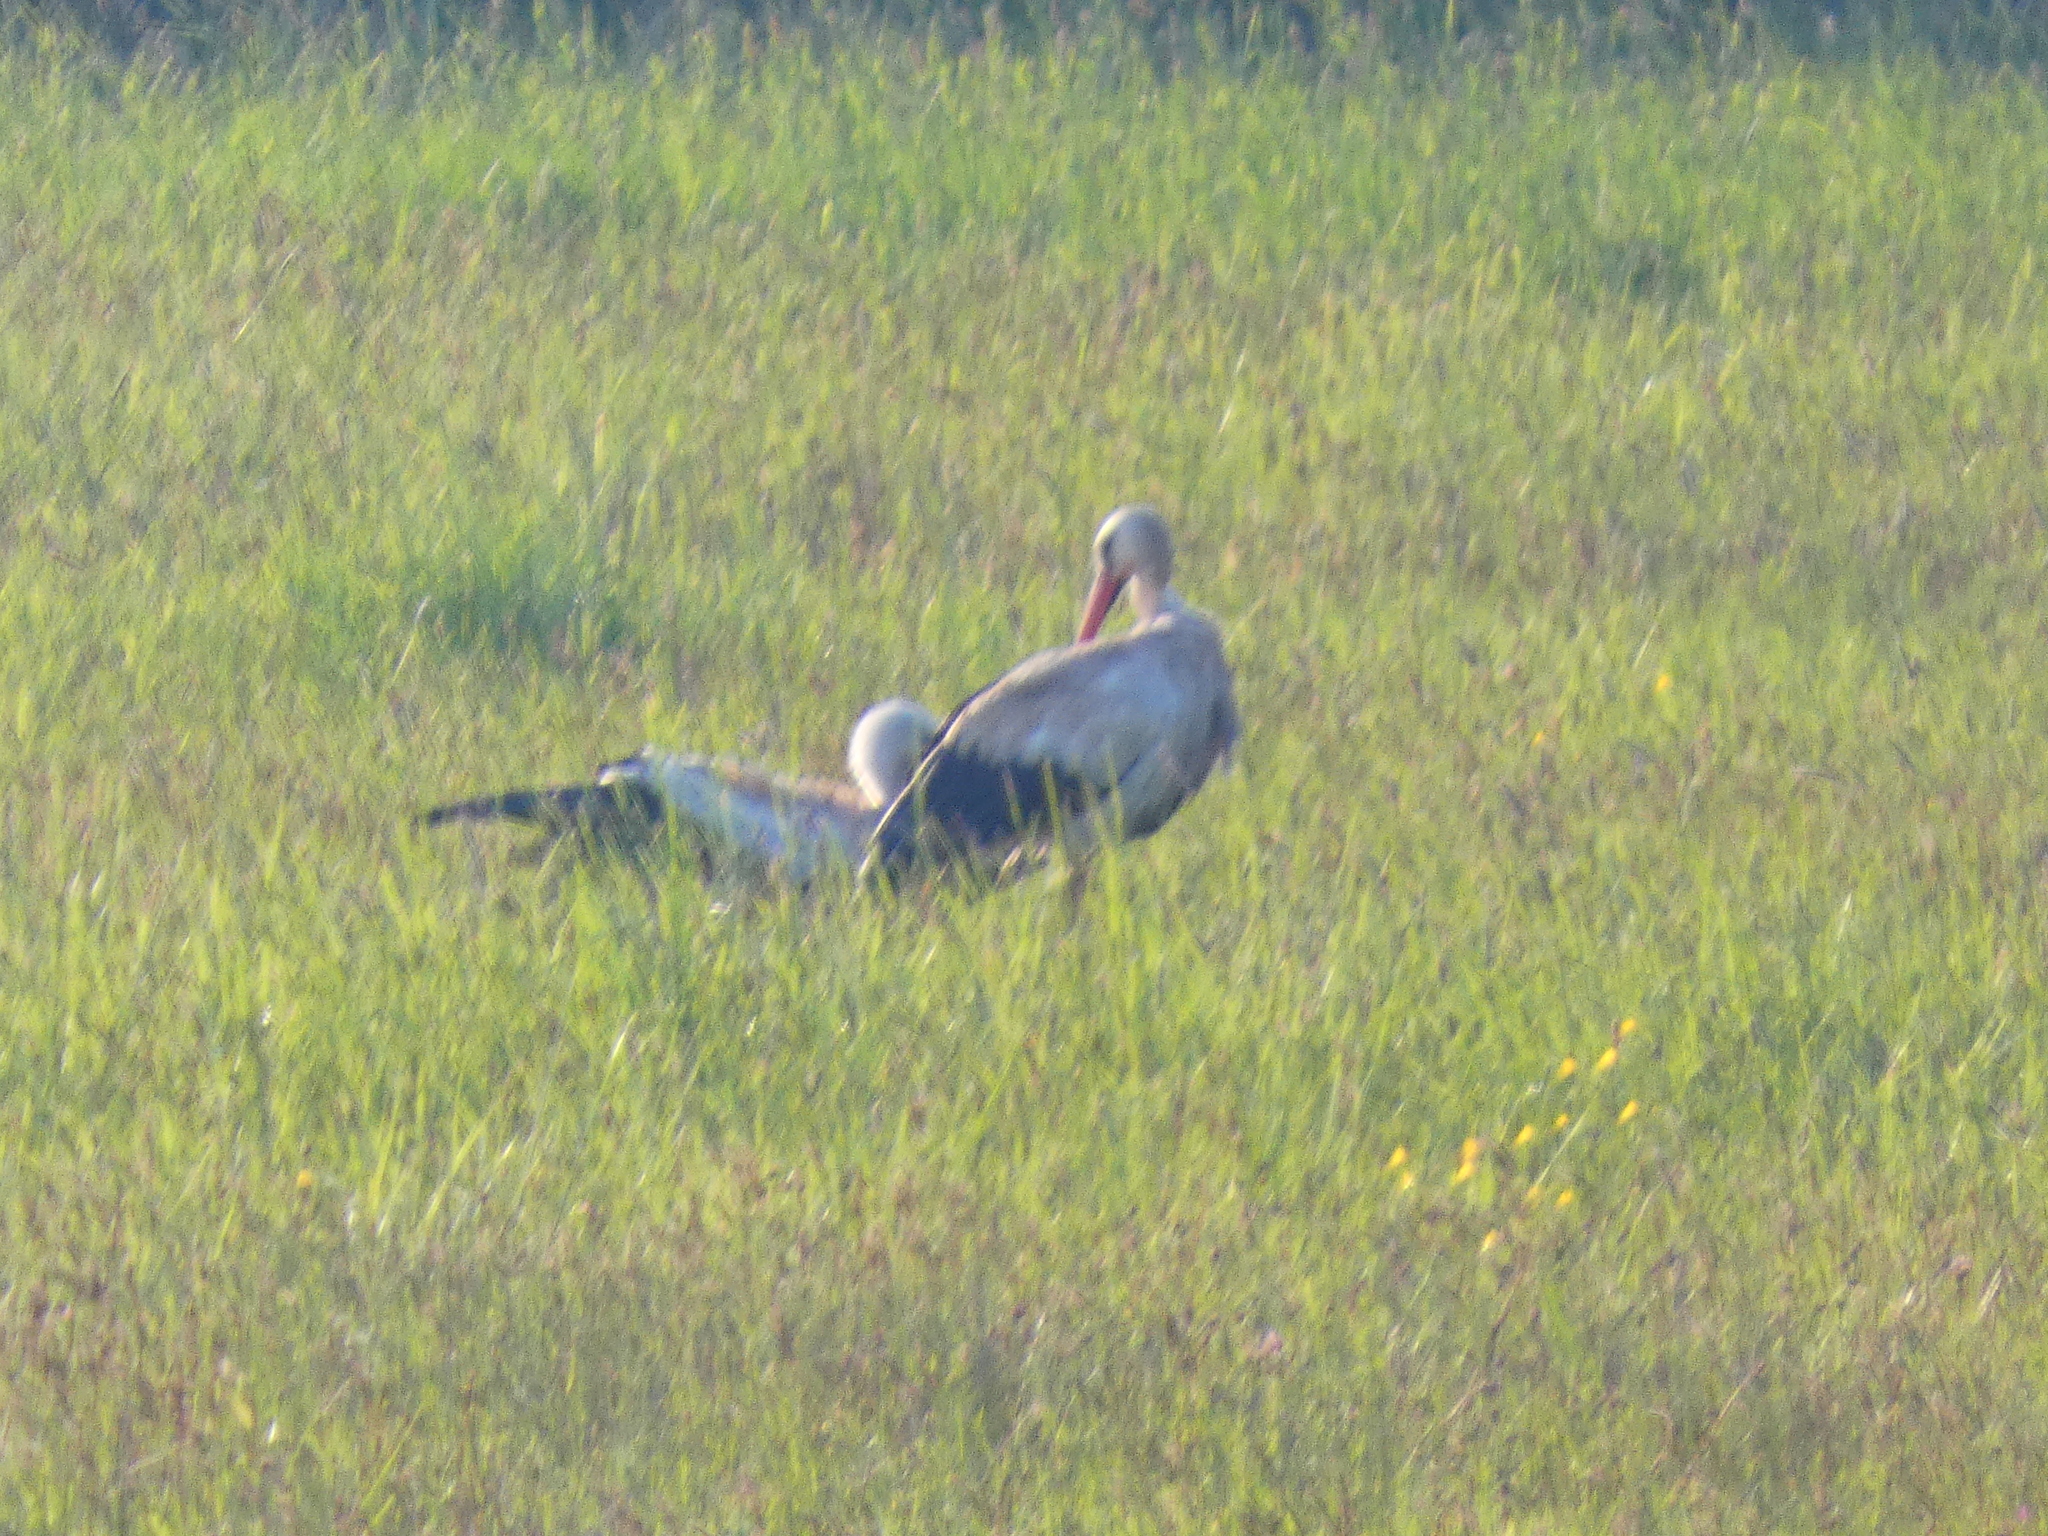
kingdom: Animalia
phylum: Chordata
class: Aves
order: Ciconiiformes
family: Ciconiidae
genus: Ciconia
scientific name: Ciconia ciconia
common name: White stork
